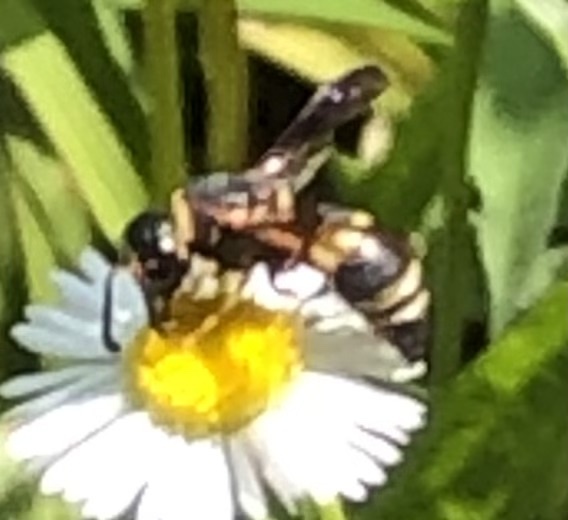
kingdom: Animalia
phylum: Arthropoda
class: Insecta
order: Hymenoptera
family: Eumenidae
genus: Euodynerus
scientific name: Euodynerus hidalgo
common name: Wasp
